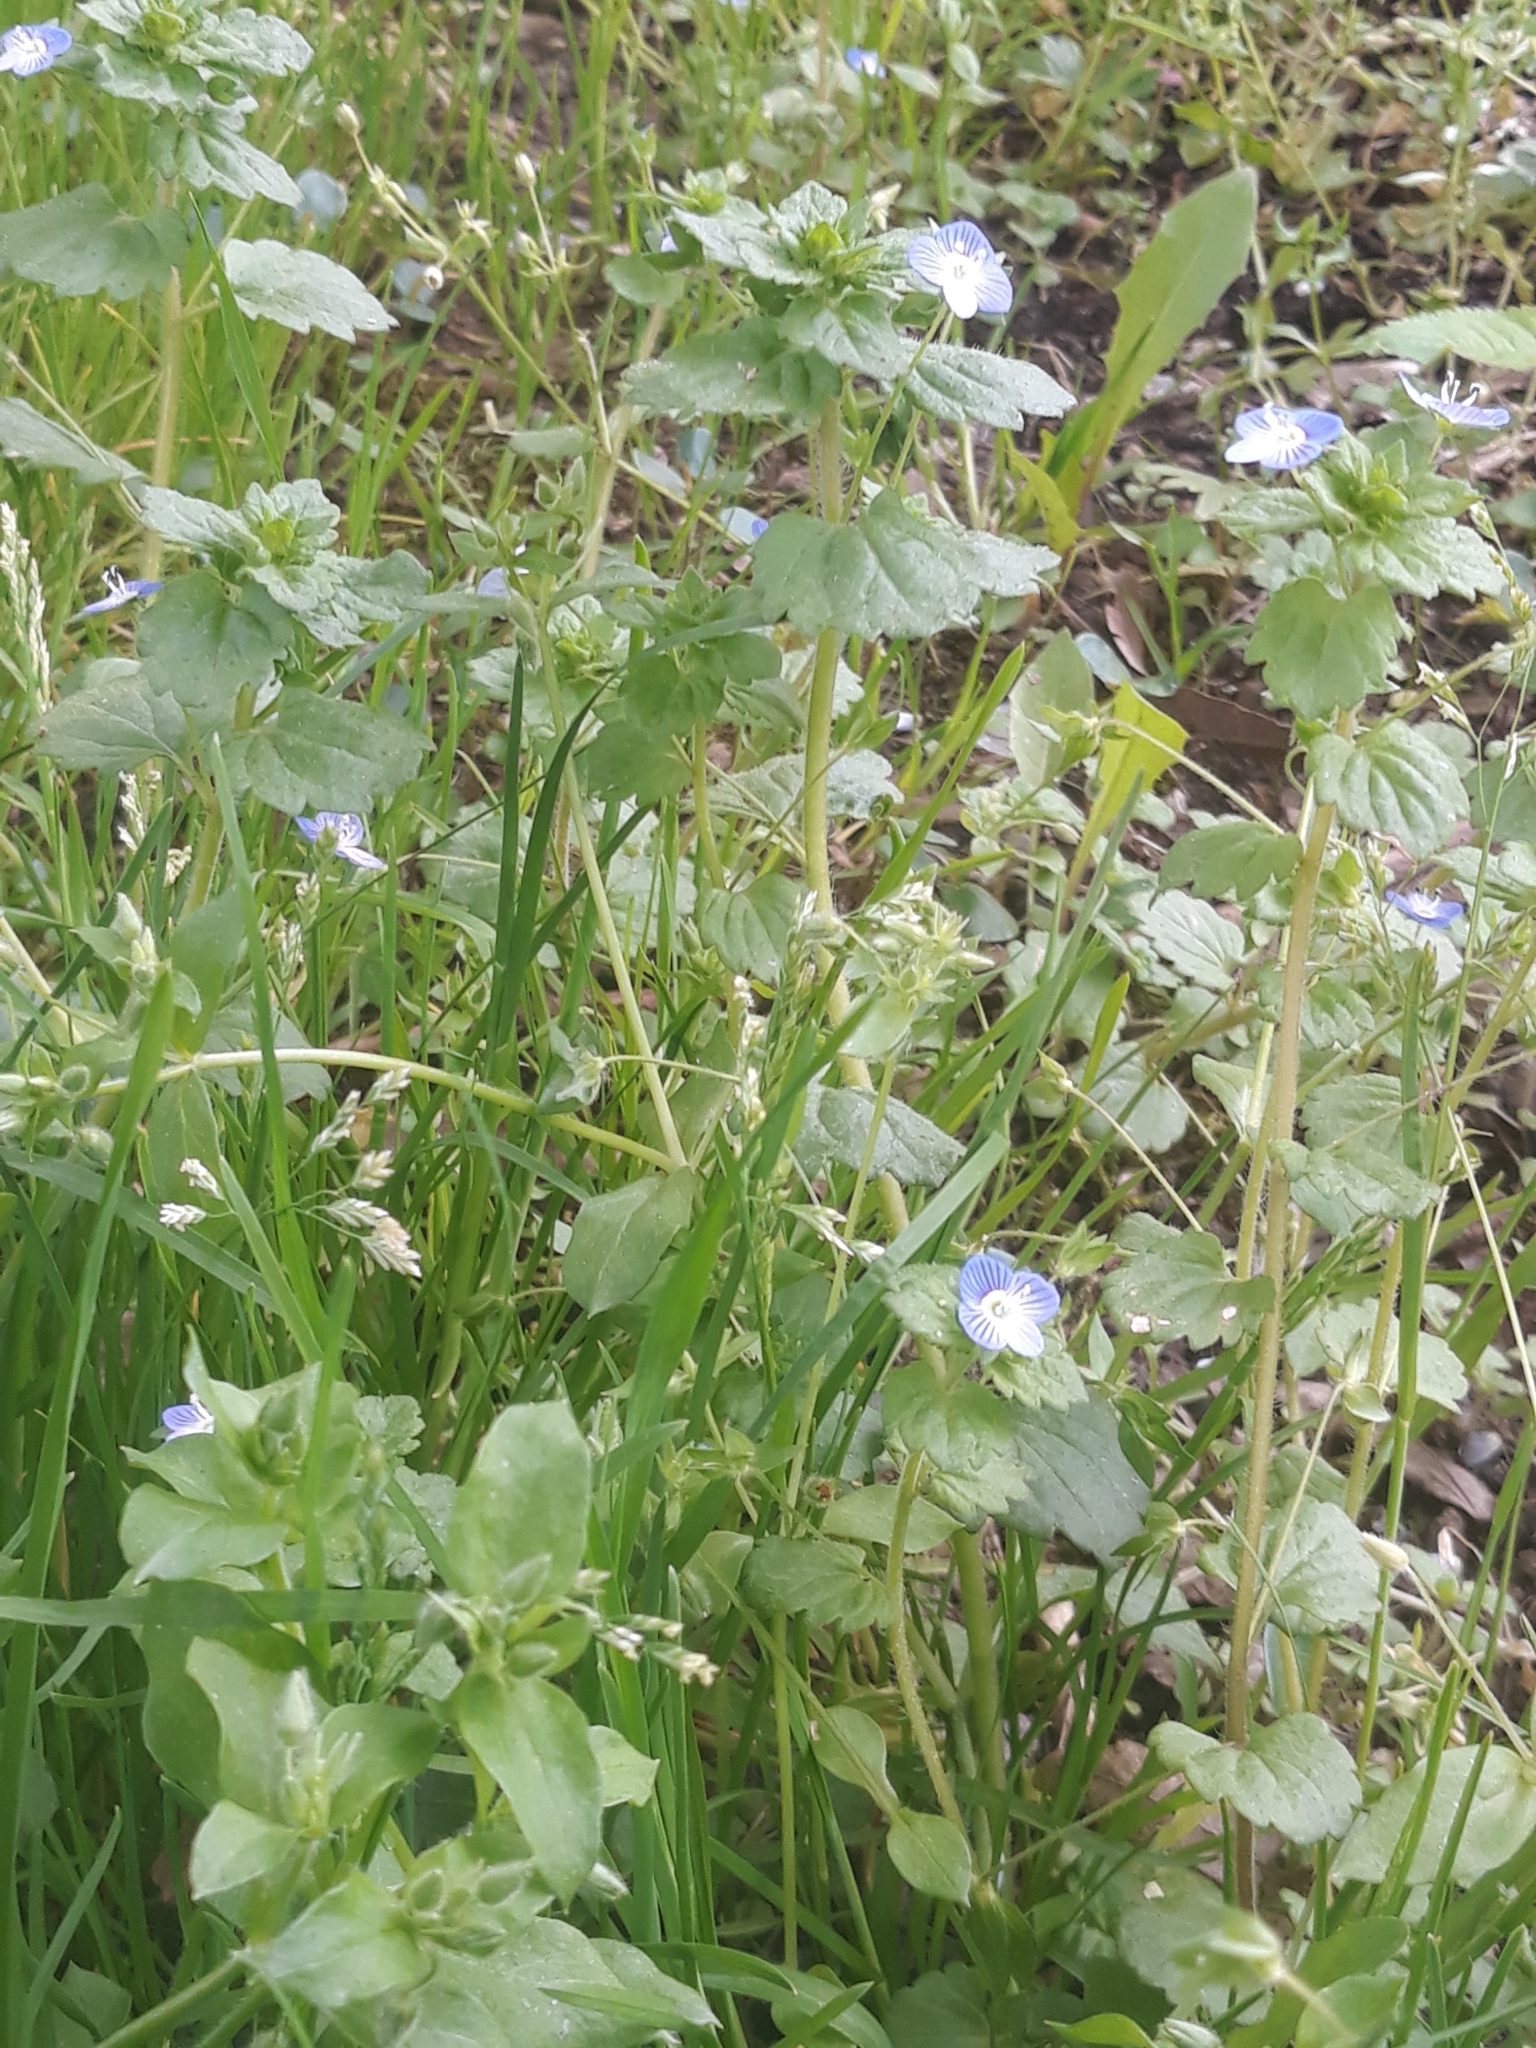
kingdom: Plantae
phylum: Tracheophyta
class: Magnoliopsida
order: Lamiales
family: Plantaginaceae
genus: Veronica
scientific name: Veronica persica
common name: Common field-speedwell
